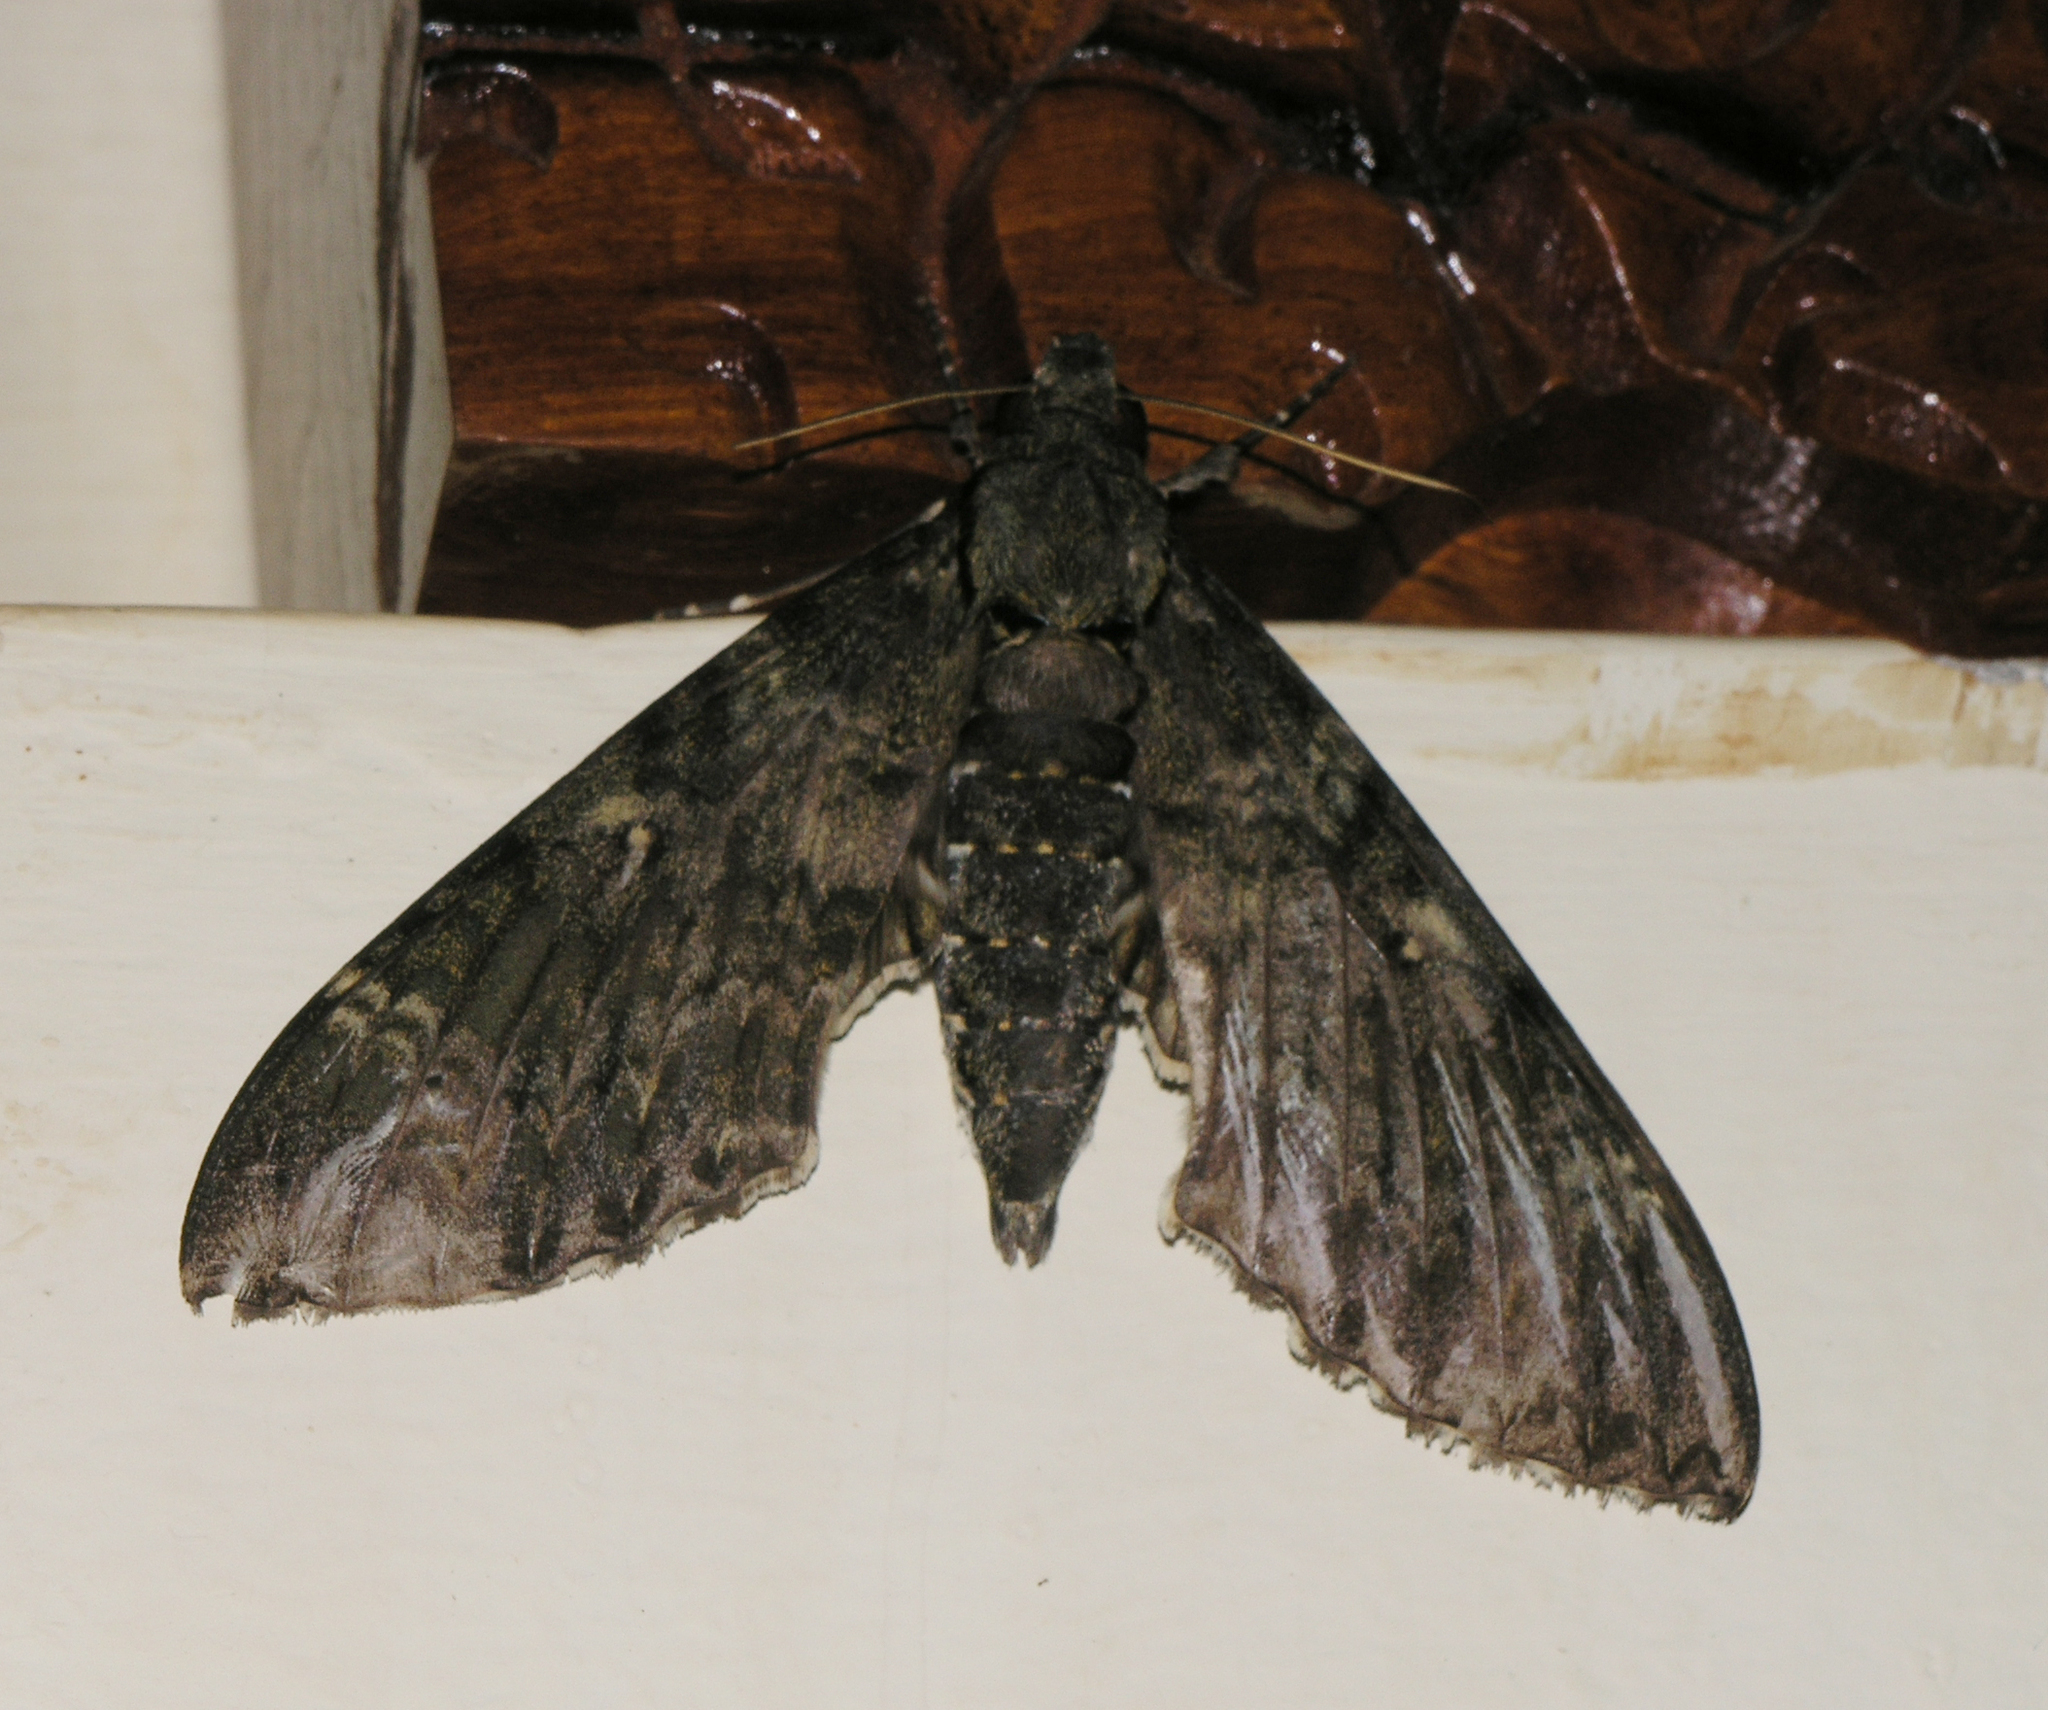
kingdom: Animalia
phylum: Arthropoda
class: Insecta
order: Lepidoptera
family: Sphingidae
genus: Meganoton
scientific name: Meganoton nyctiphanes
